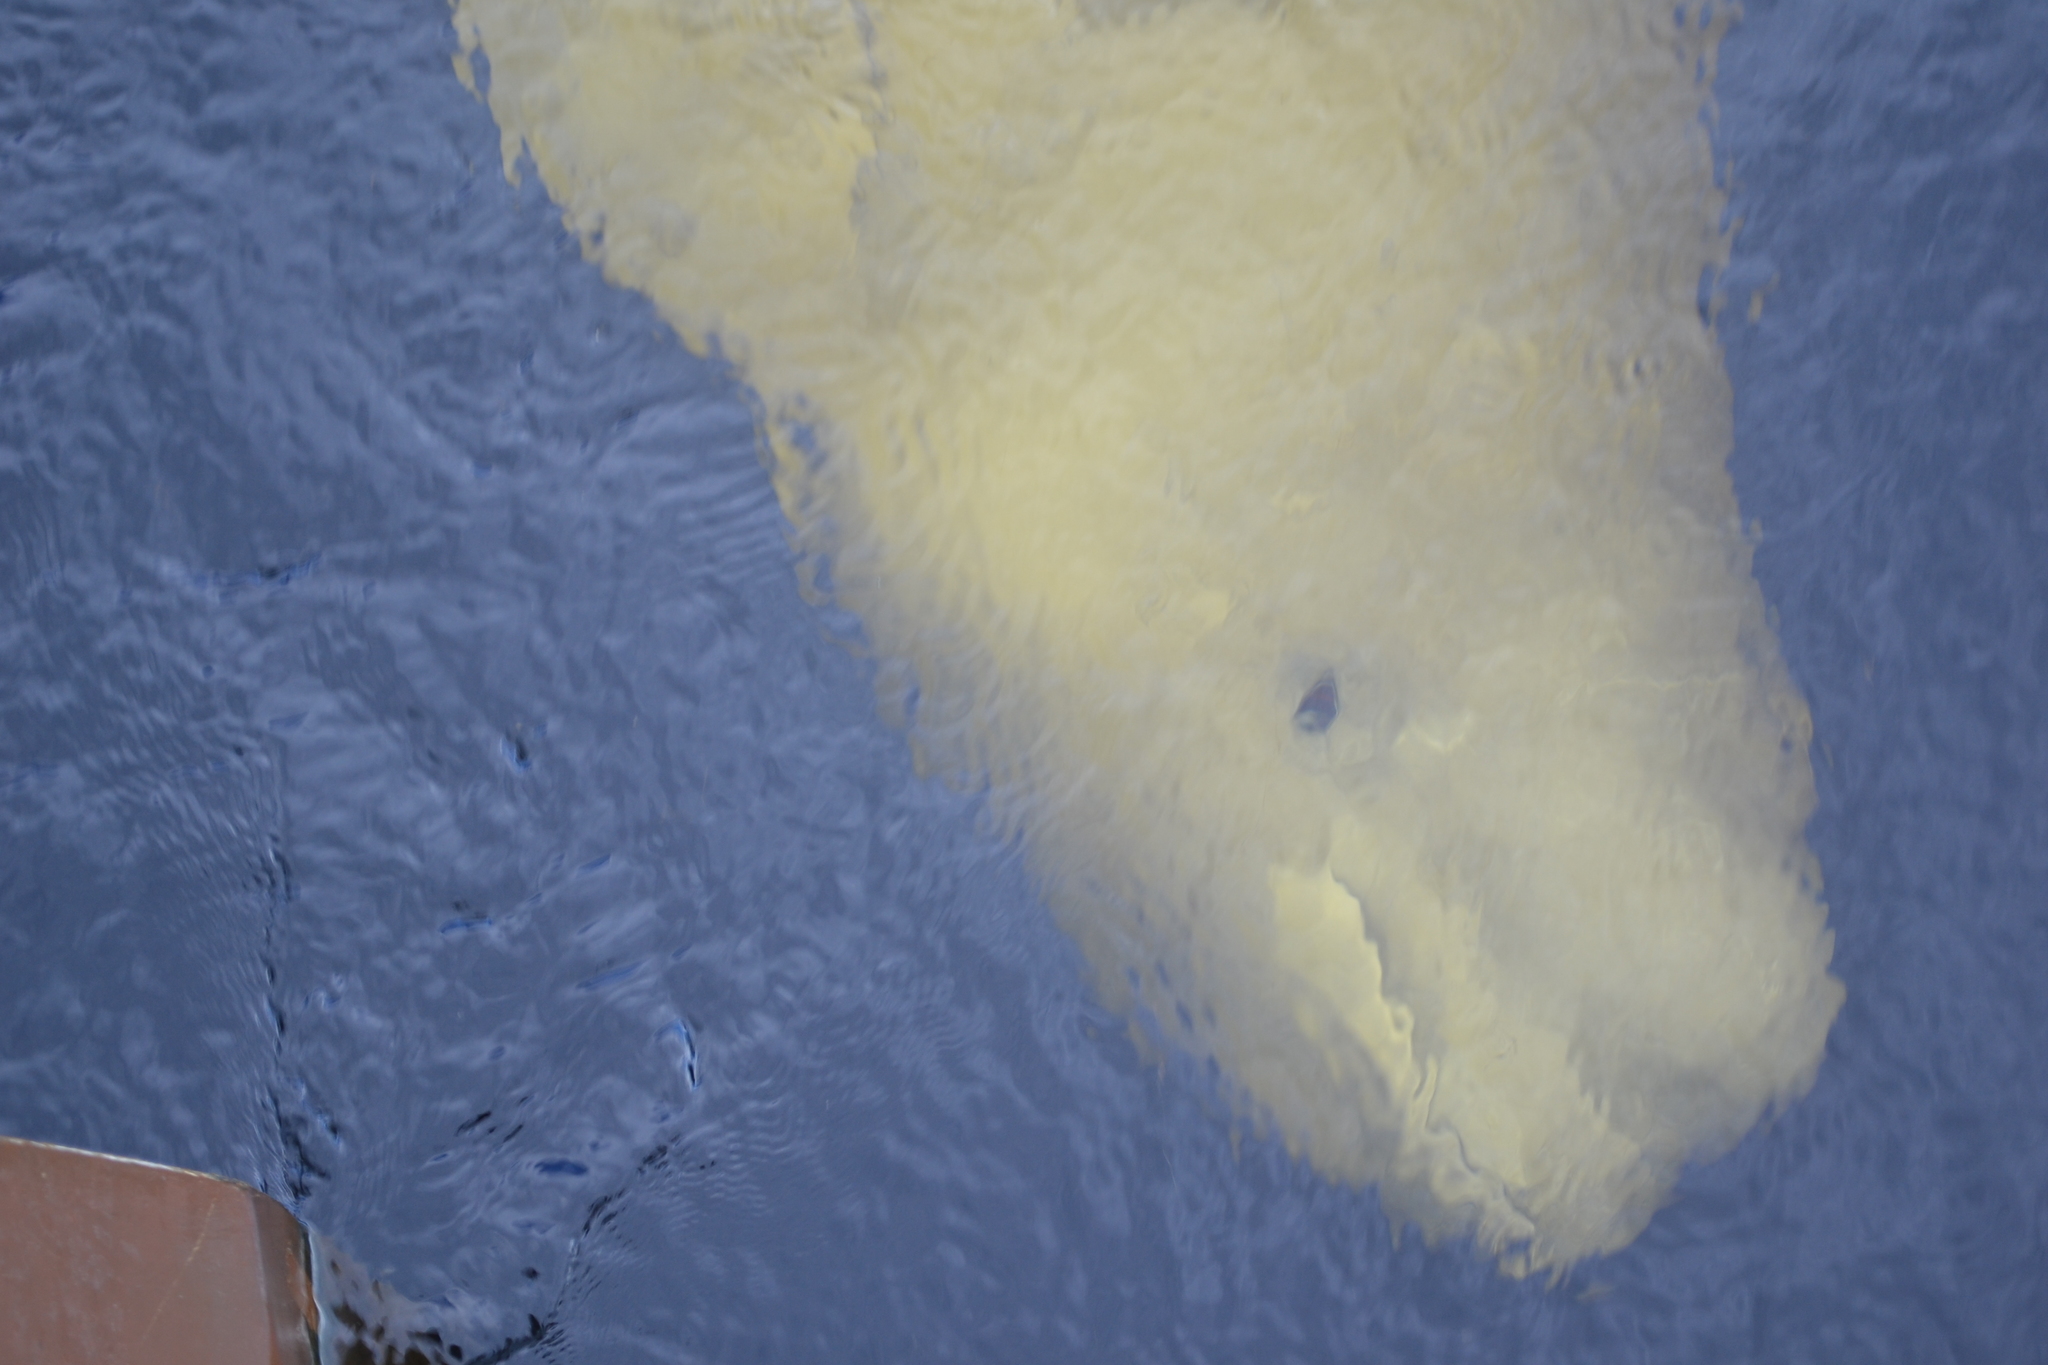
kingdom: Animalia
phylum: Chordata
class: Mammalia
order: Cetacea
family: Monodontidae
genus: Delphinapterus
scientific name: Delphinapterus leucas
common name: Beluga
